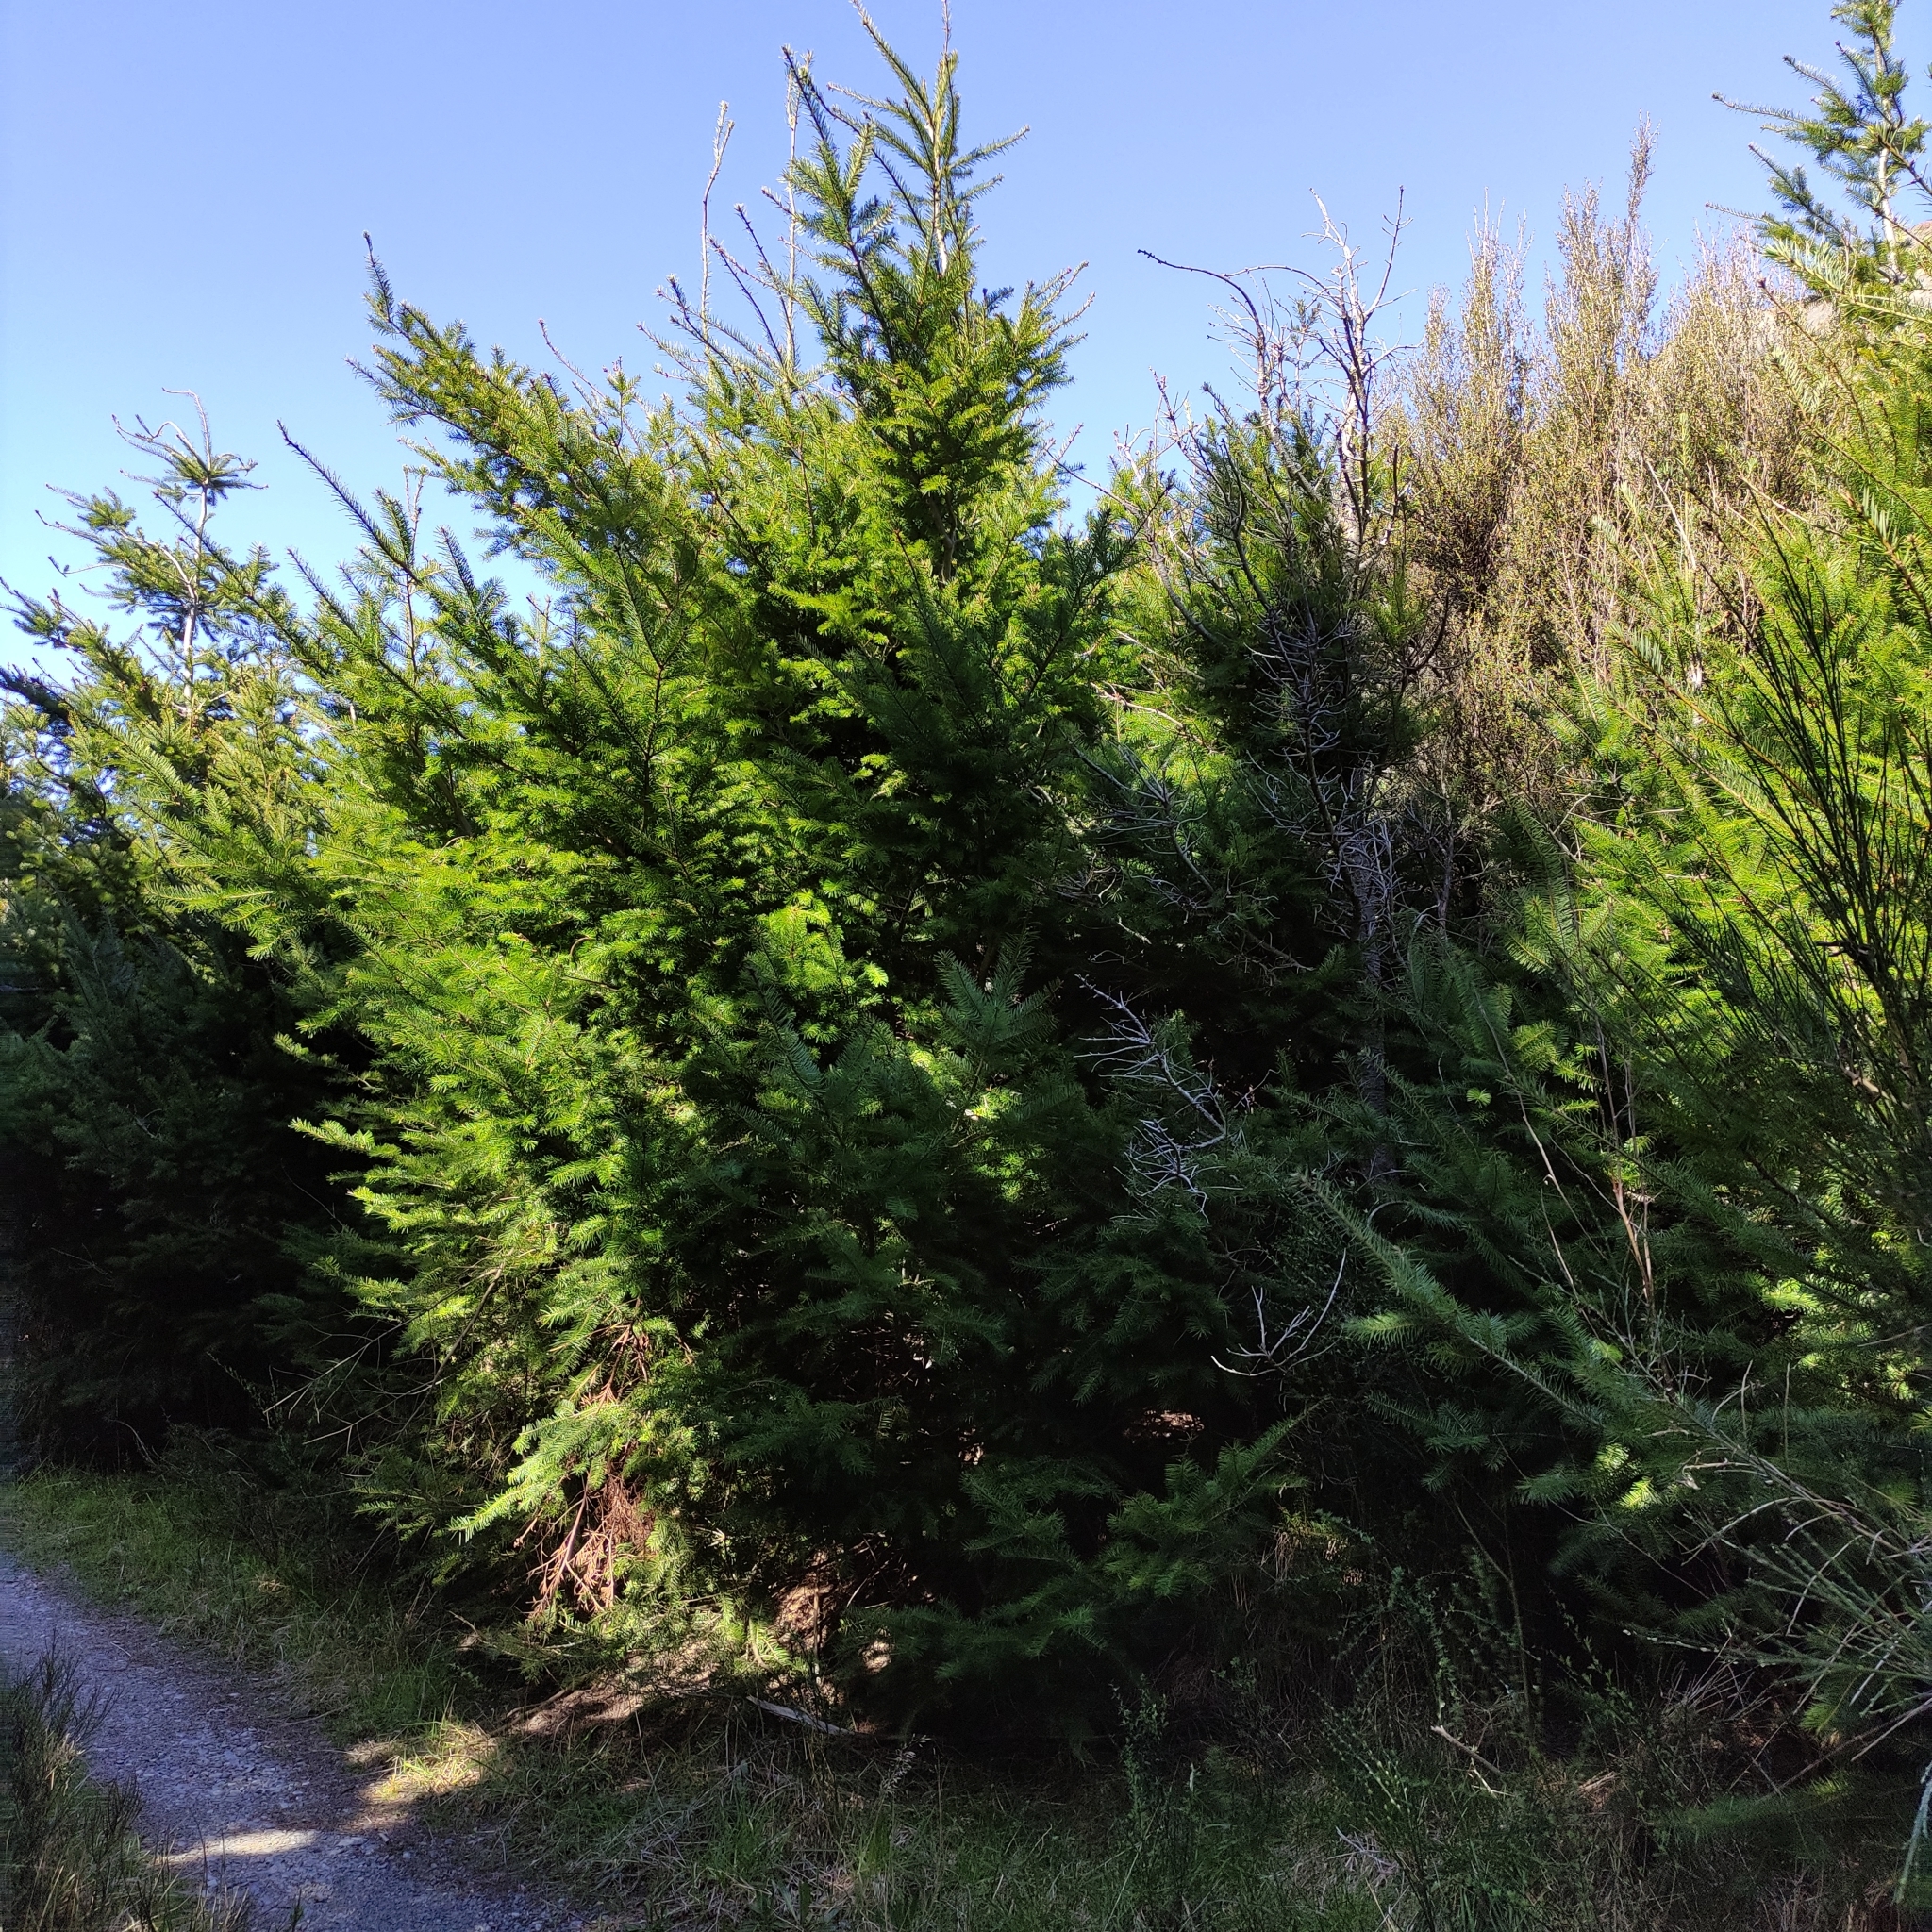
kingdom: Plantae
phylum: Tracheophyta
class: Pinopsida
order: Pinales
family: Pinaceae
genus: Pseudotsuga
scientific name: Pseudotsuga menziesii
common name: Douglas fir
